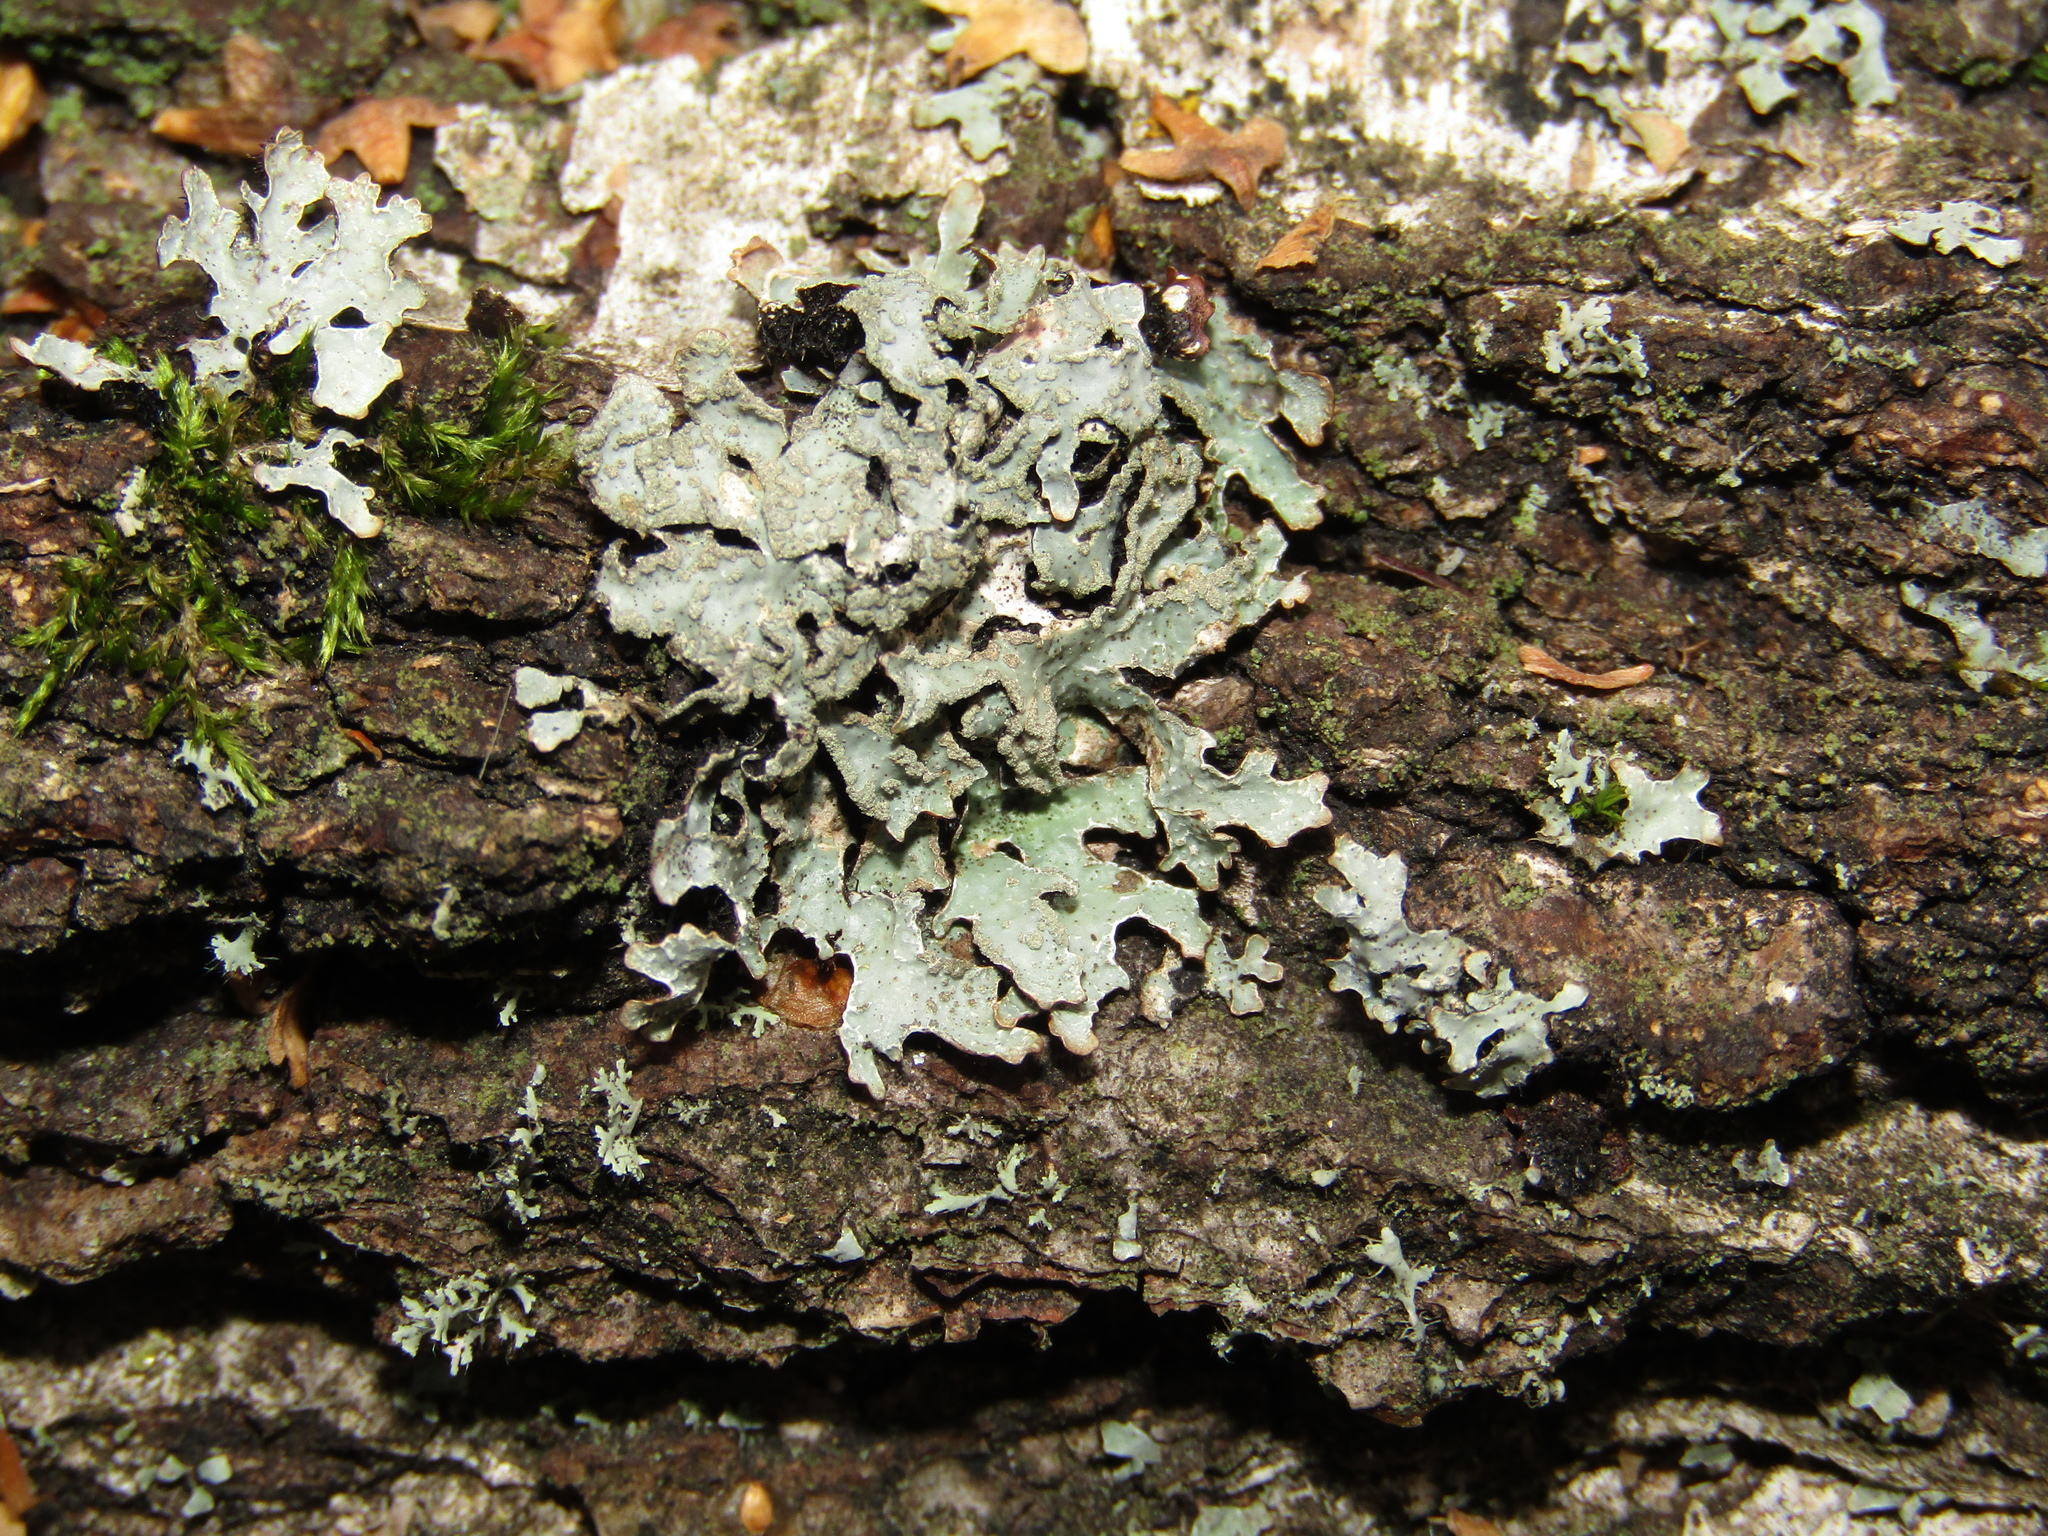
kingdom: Fungi
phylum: Ascomycota
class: Lecanoromycetes
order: Lecanorales
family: Parmeliaceae
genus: Parmelia
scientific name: Parmelia sulcata
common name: Netted shield lichen
